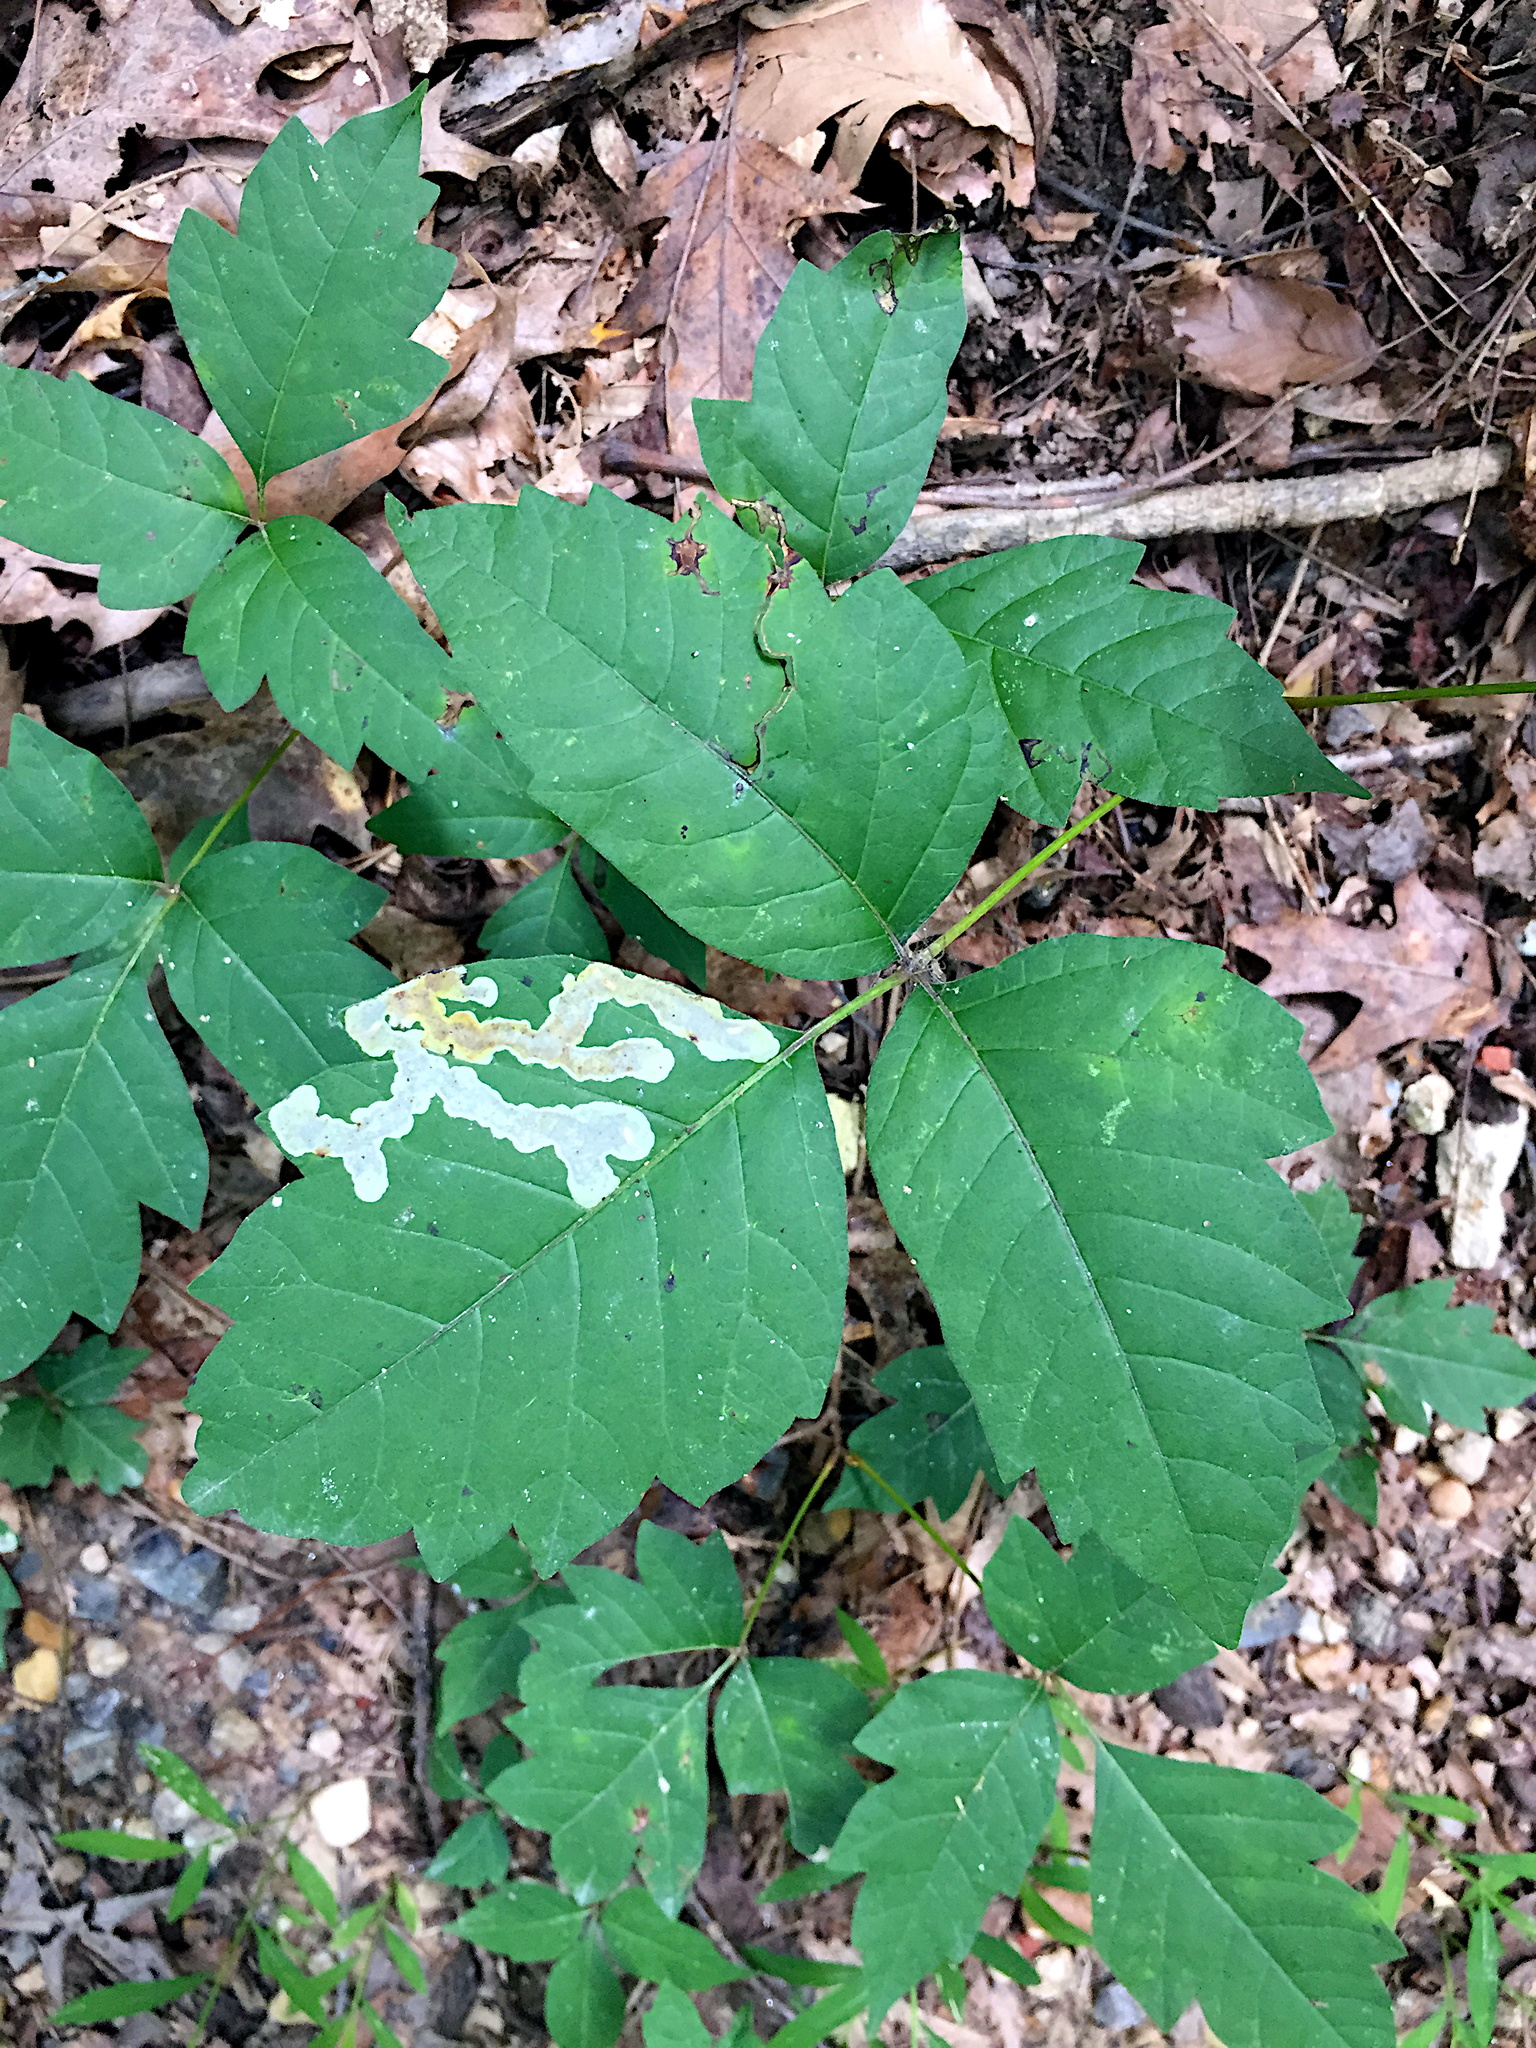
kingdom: Animalia
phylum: Arthropoda
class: Insecta
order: Lepidoptera
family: Gracillariidae
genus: Cameraria
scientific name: Cameraria guttifinitella
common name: Poison ivy leaf-miner moth
